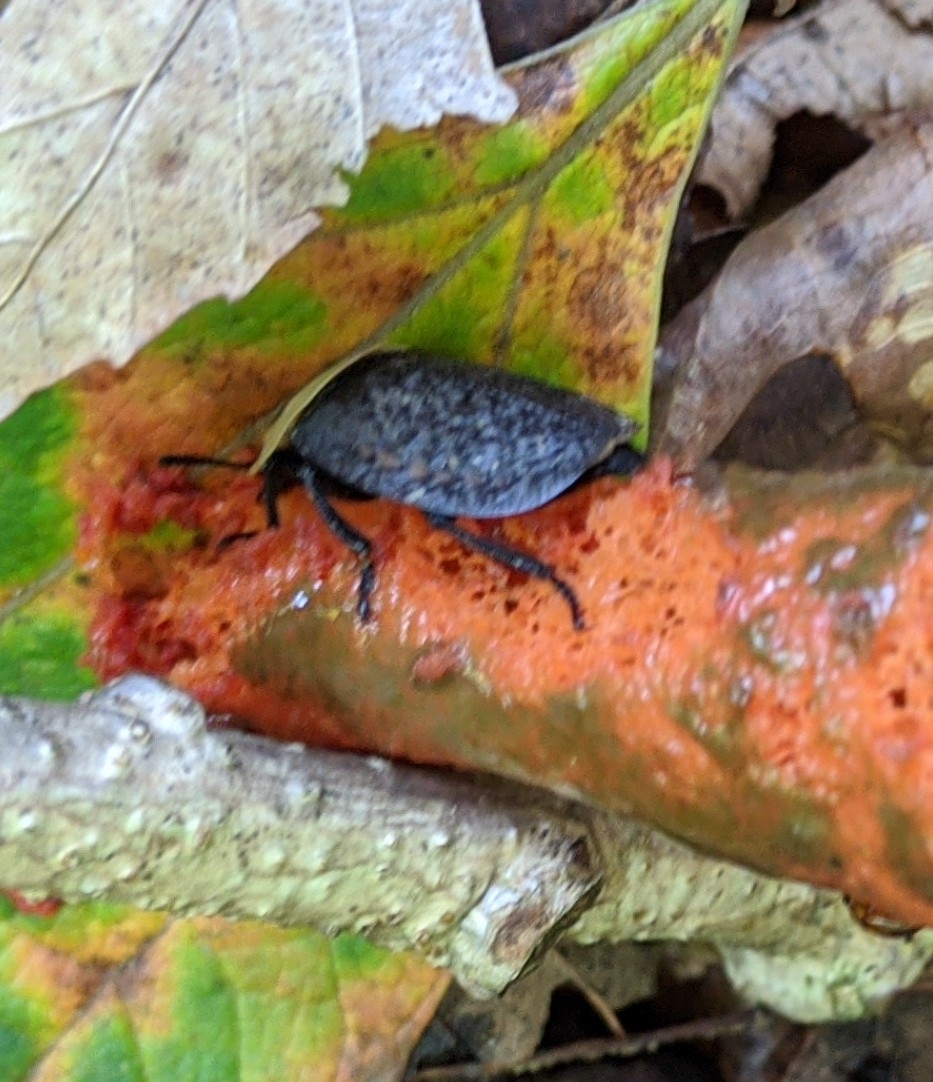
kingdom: Animalia
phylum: Arthropoda
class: Insecta
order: Coleoptera
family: Staphylinidae
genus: Necrophila
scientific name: Necrophila americana
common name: American carrion beetle
